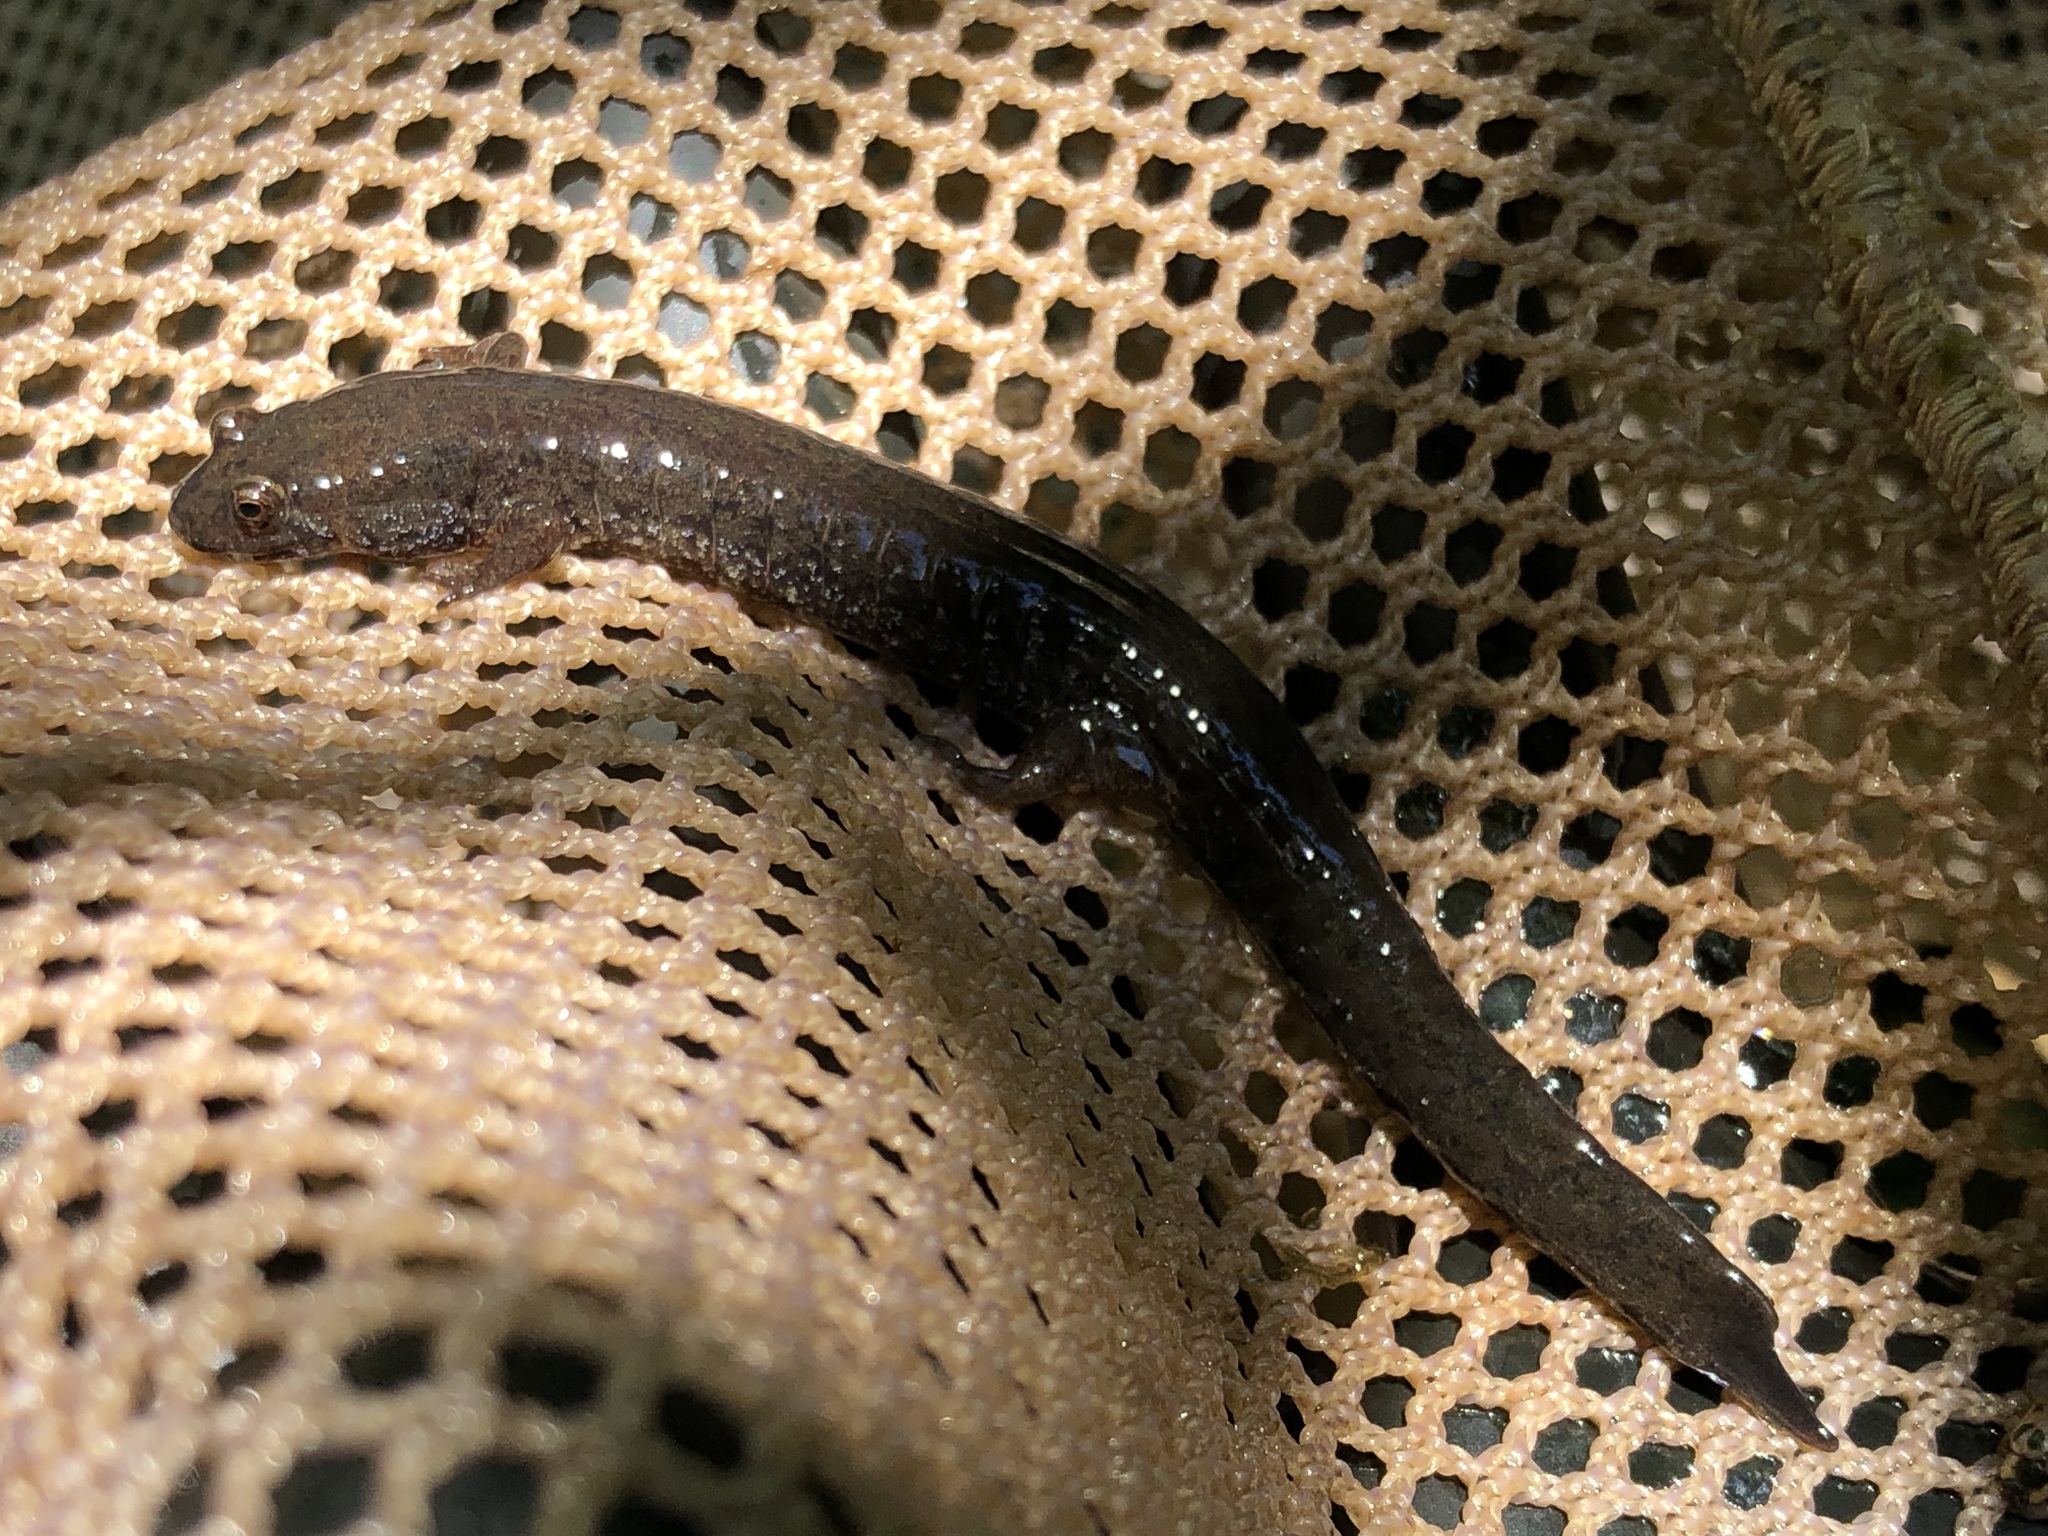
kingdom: Animalia
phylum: Chordata
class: Amphibia
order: Caudata
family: Plethodontidae
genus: Desmognathus
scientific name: Desmognathus fuscus
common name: Northern dusky salamander
